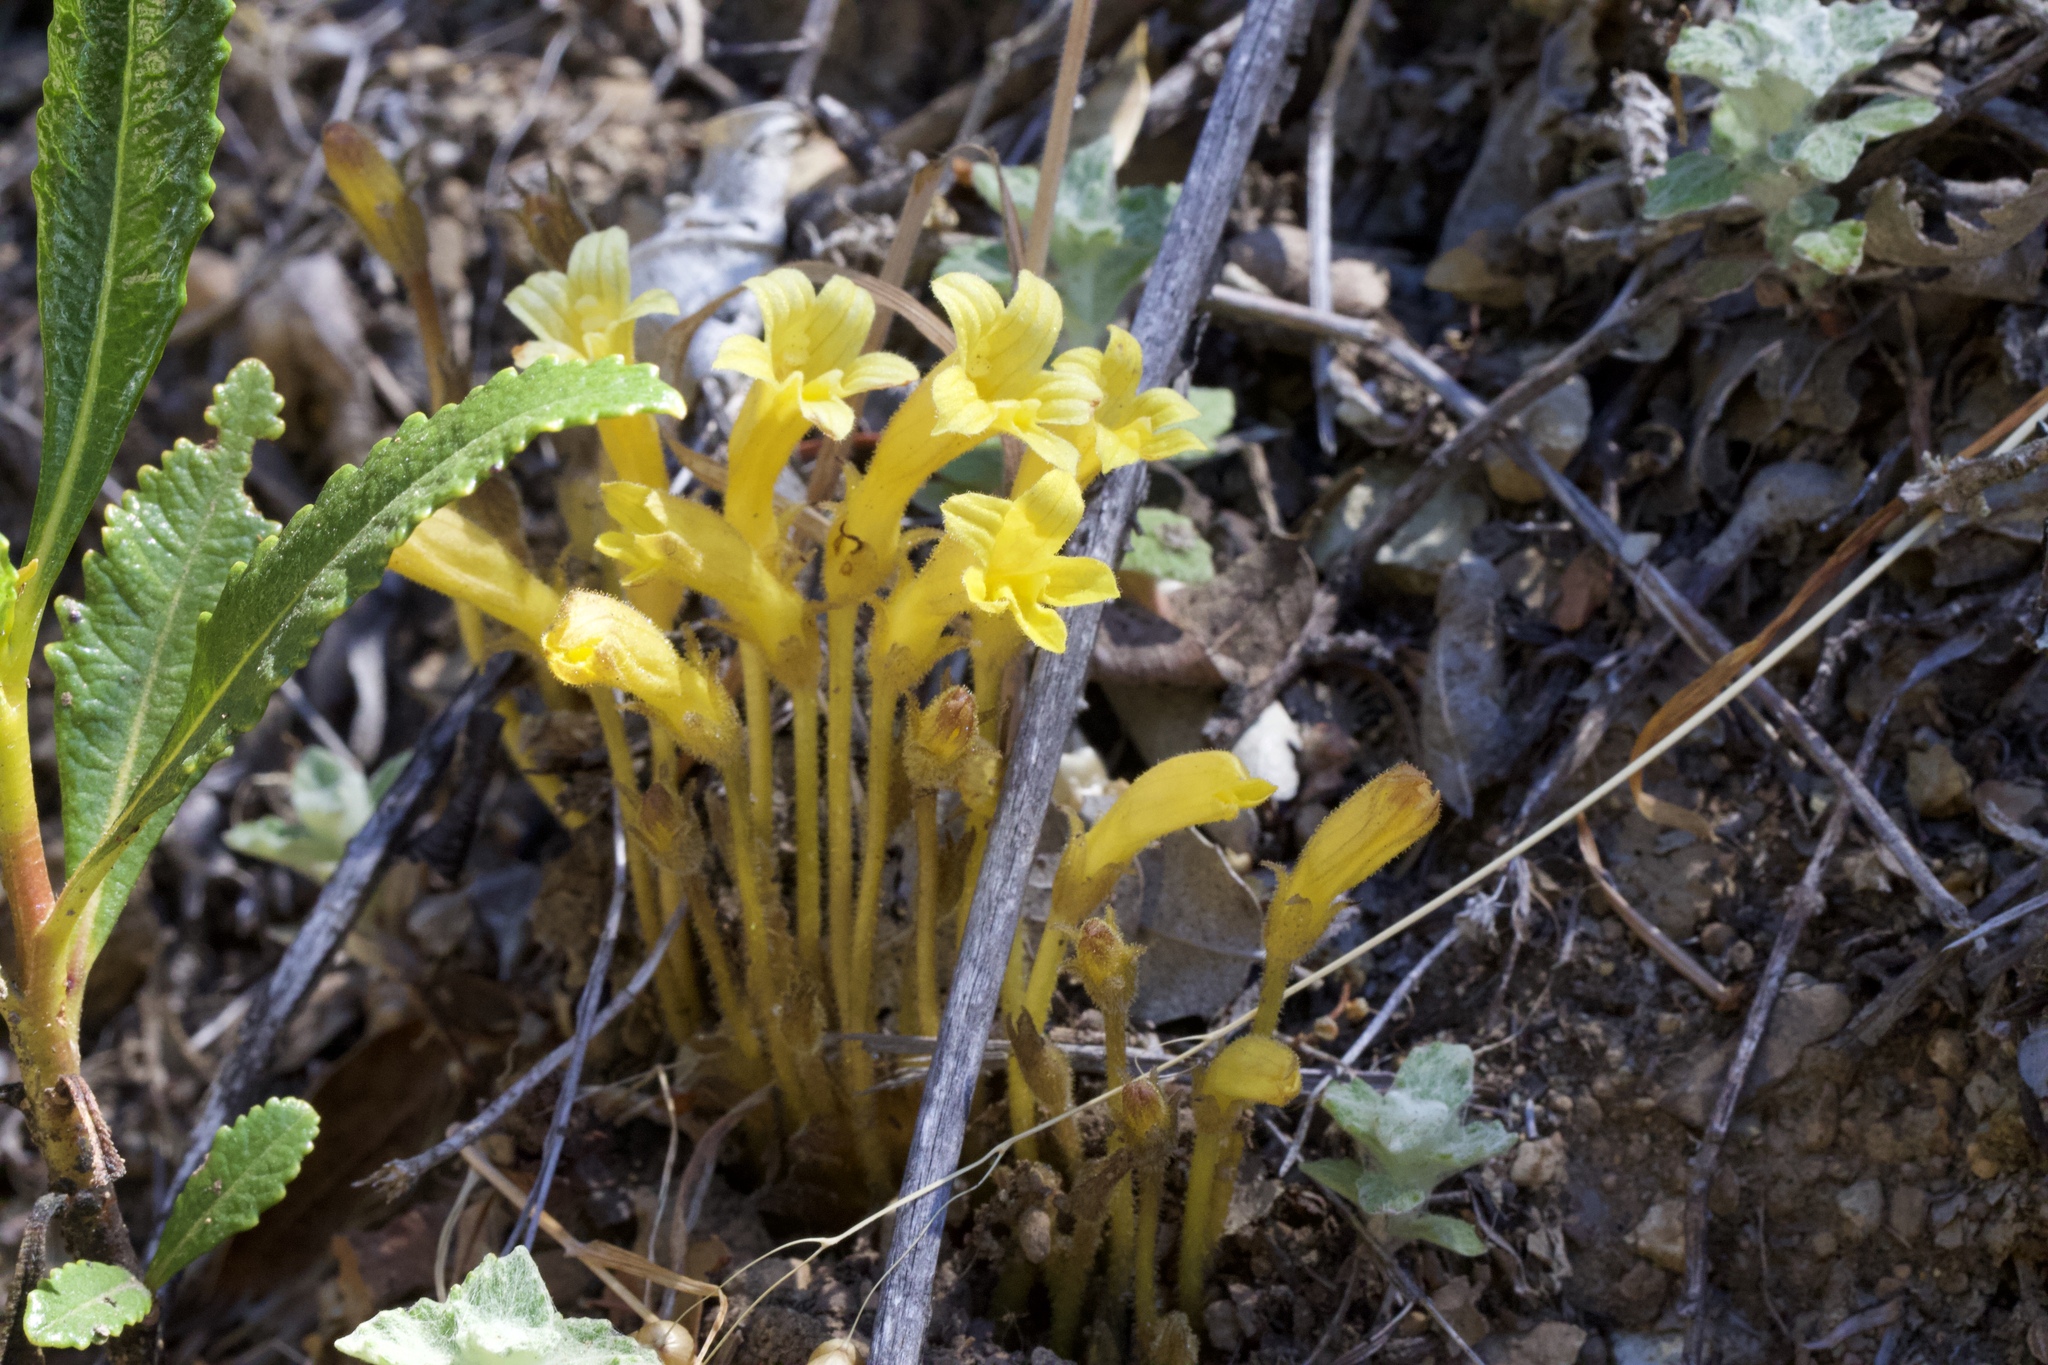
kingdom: Plantae
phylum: Tracheophyta
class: Magnoliopsida
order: Lamiales
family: Orobanchaceae
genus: Aphyllon
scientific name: Aphyllon franciscanum
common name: San francisco broomrape
